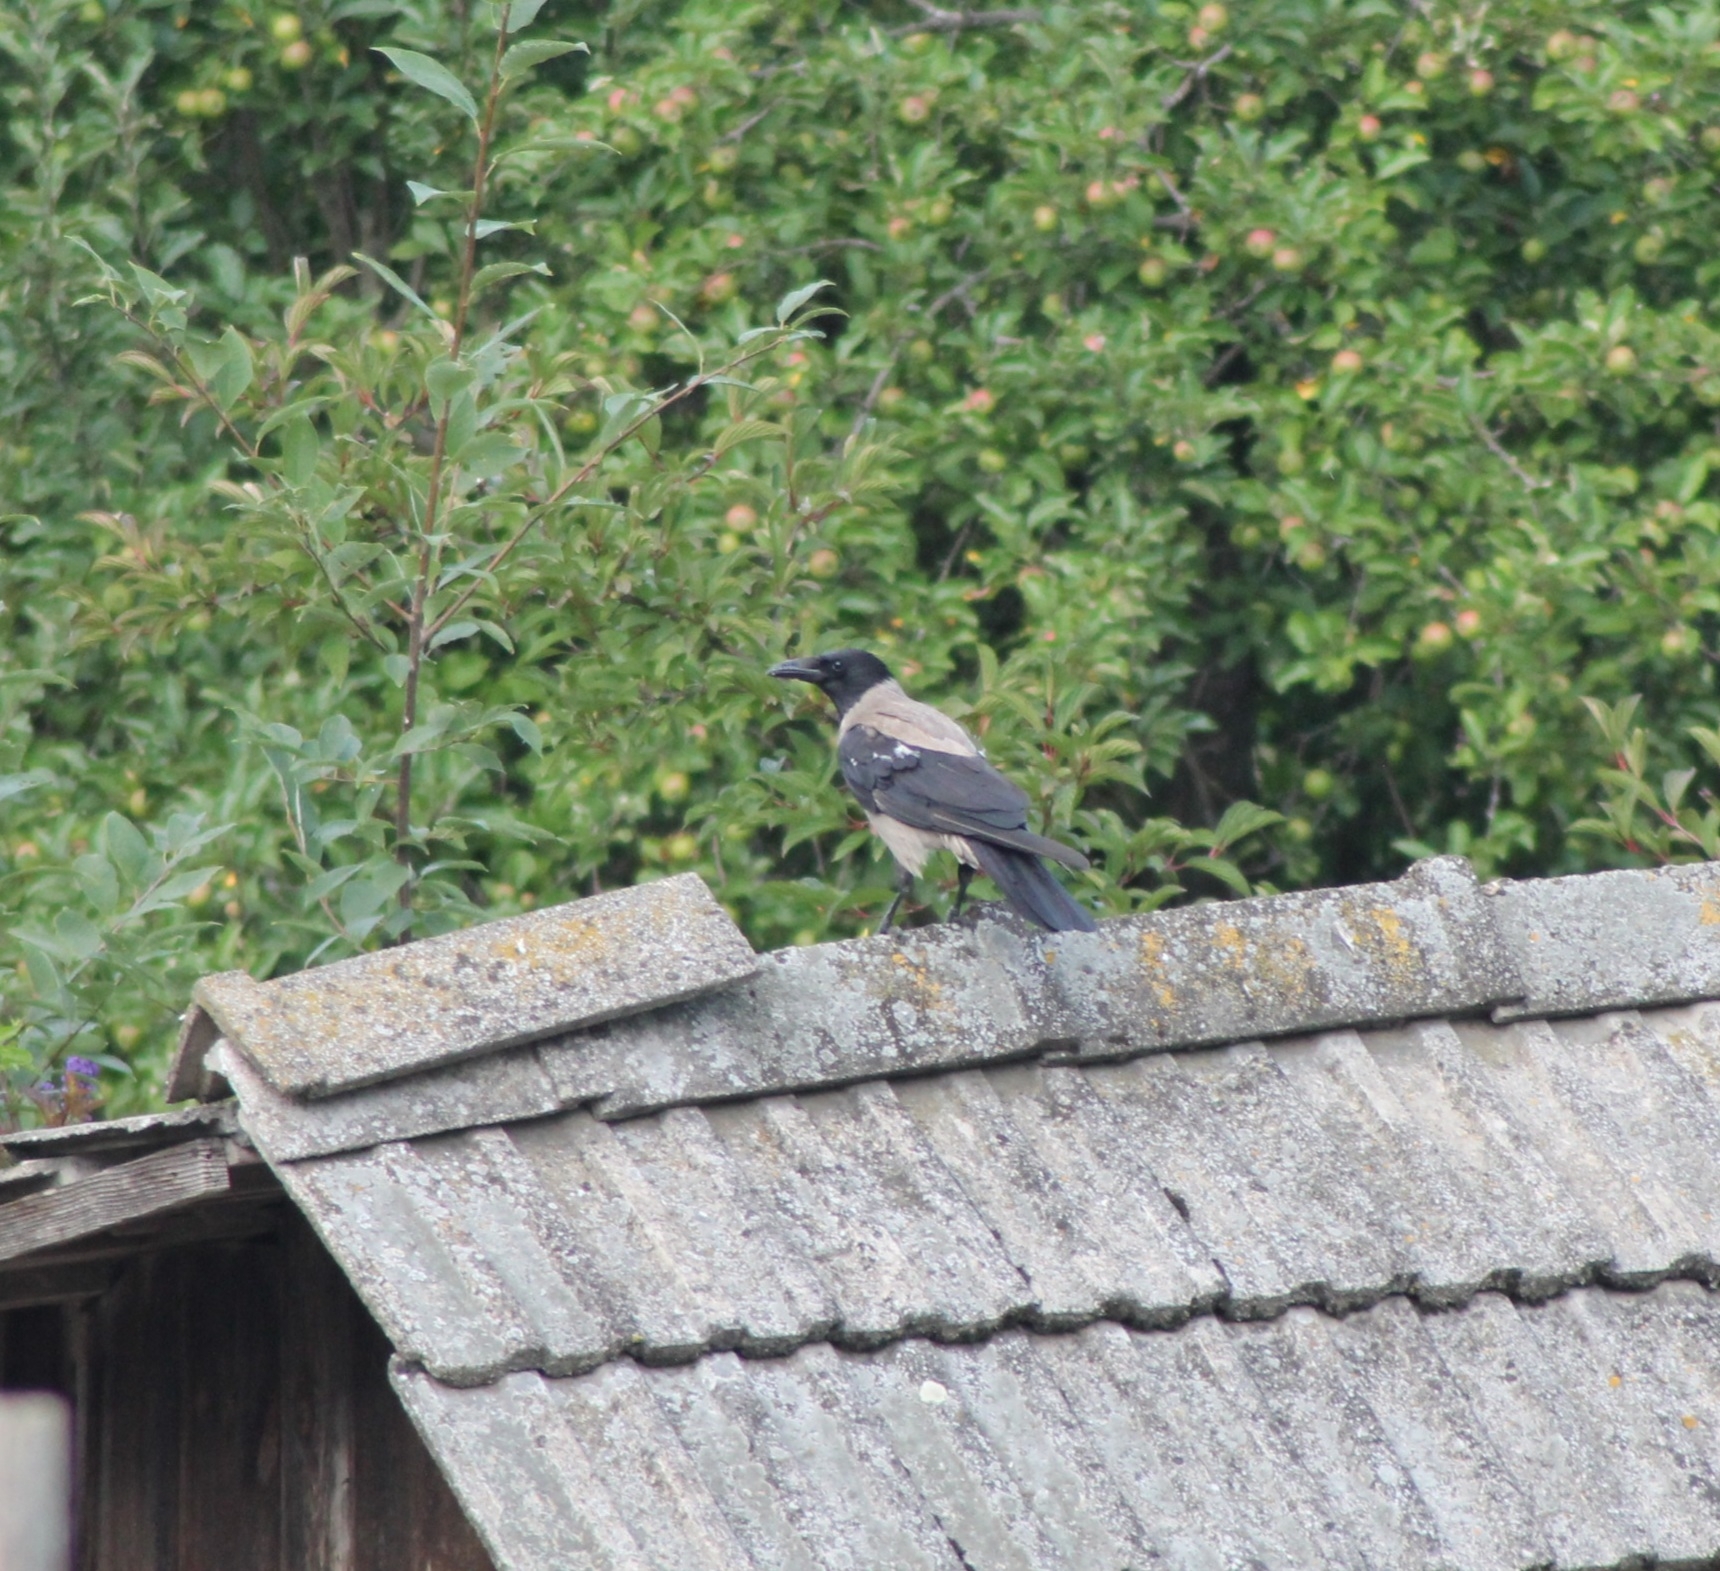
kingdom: Animalia
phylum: Chordata
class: Aves
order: Passeriformes
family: Corvidae
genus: Corvus
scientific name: Corvus cornix
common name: Hooded crow
